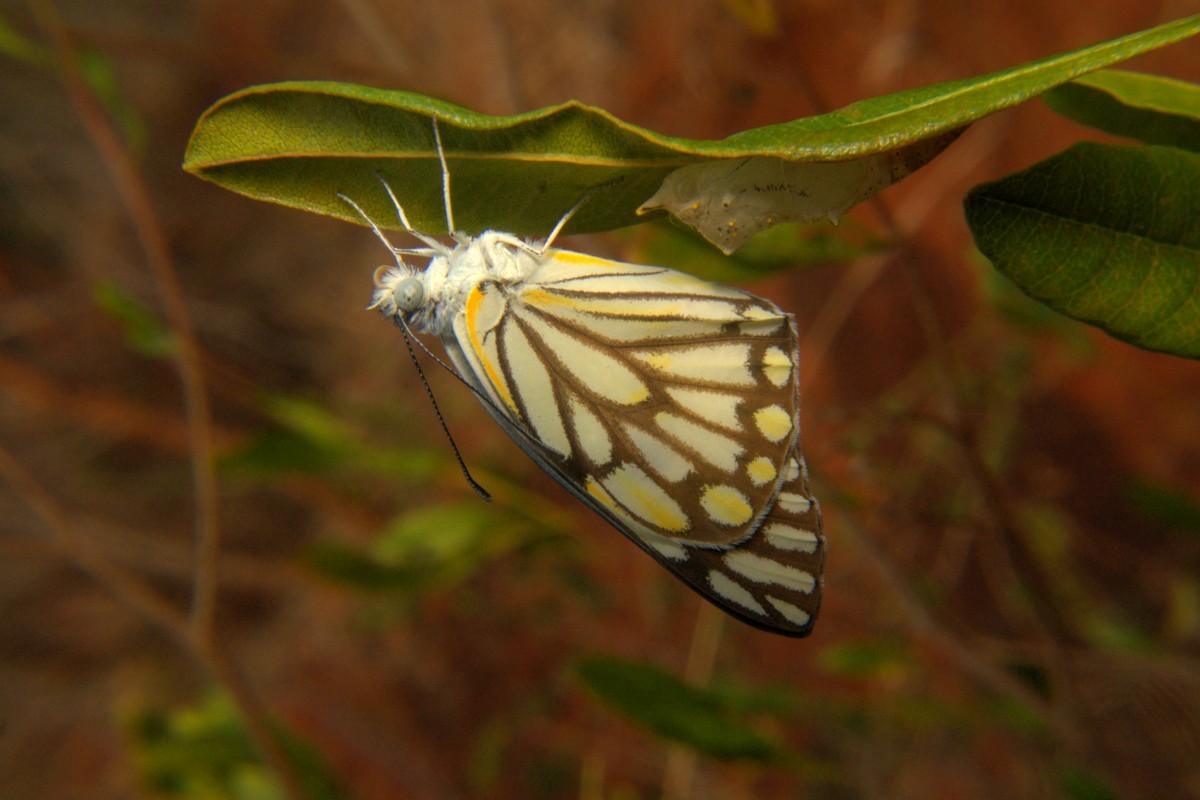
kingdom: Animalia
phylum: Arthropoda
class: Insecta
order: Lepidoptera
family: Pieridae
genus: Belenois
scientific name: Belenois aurota
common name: Brown-veined white
